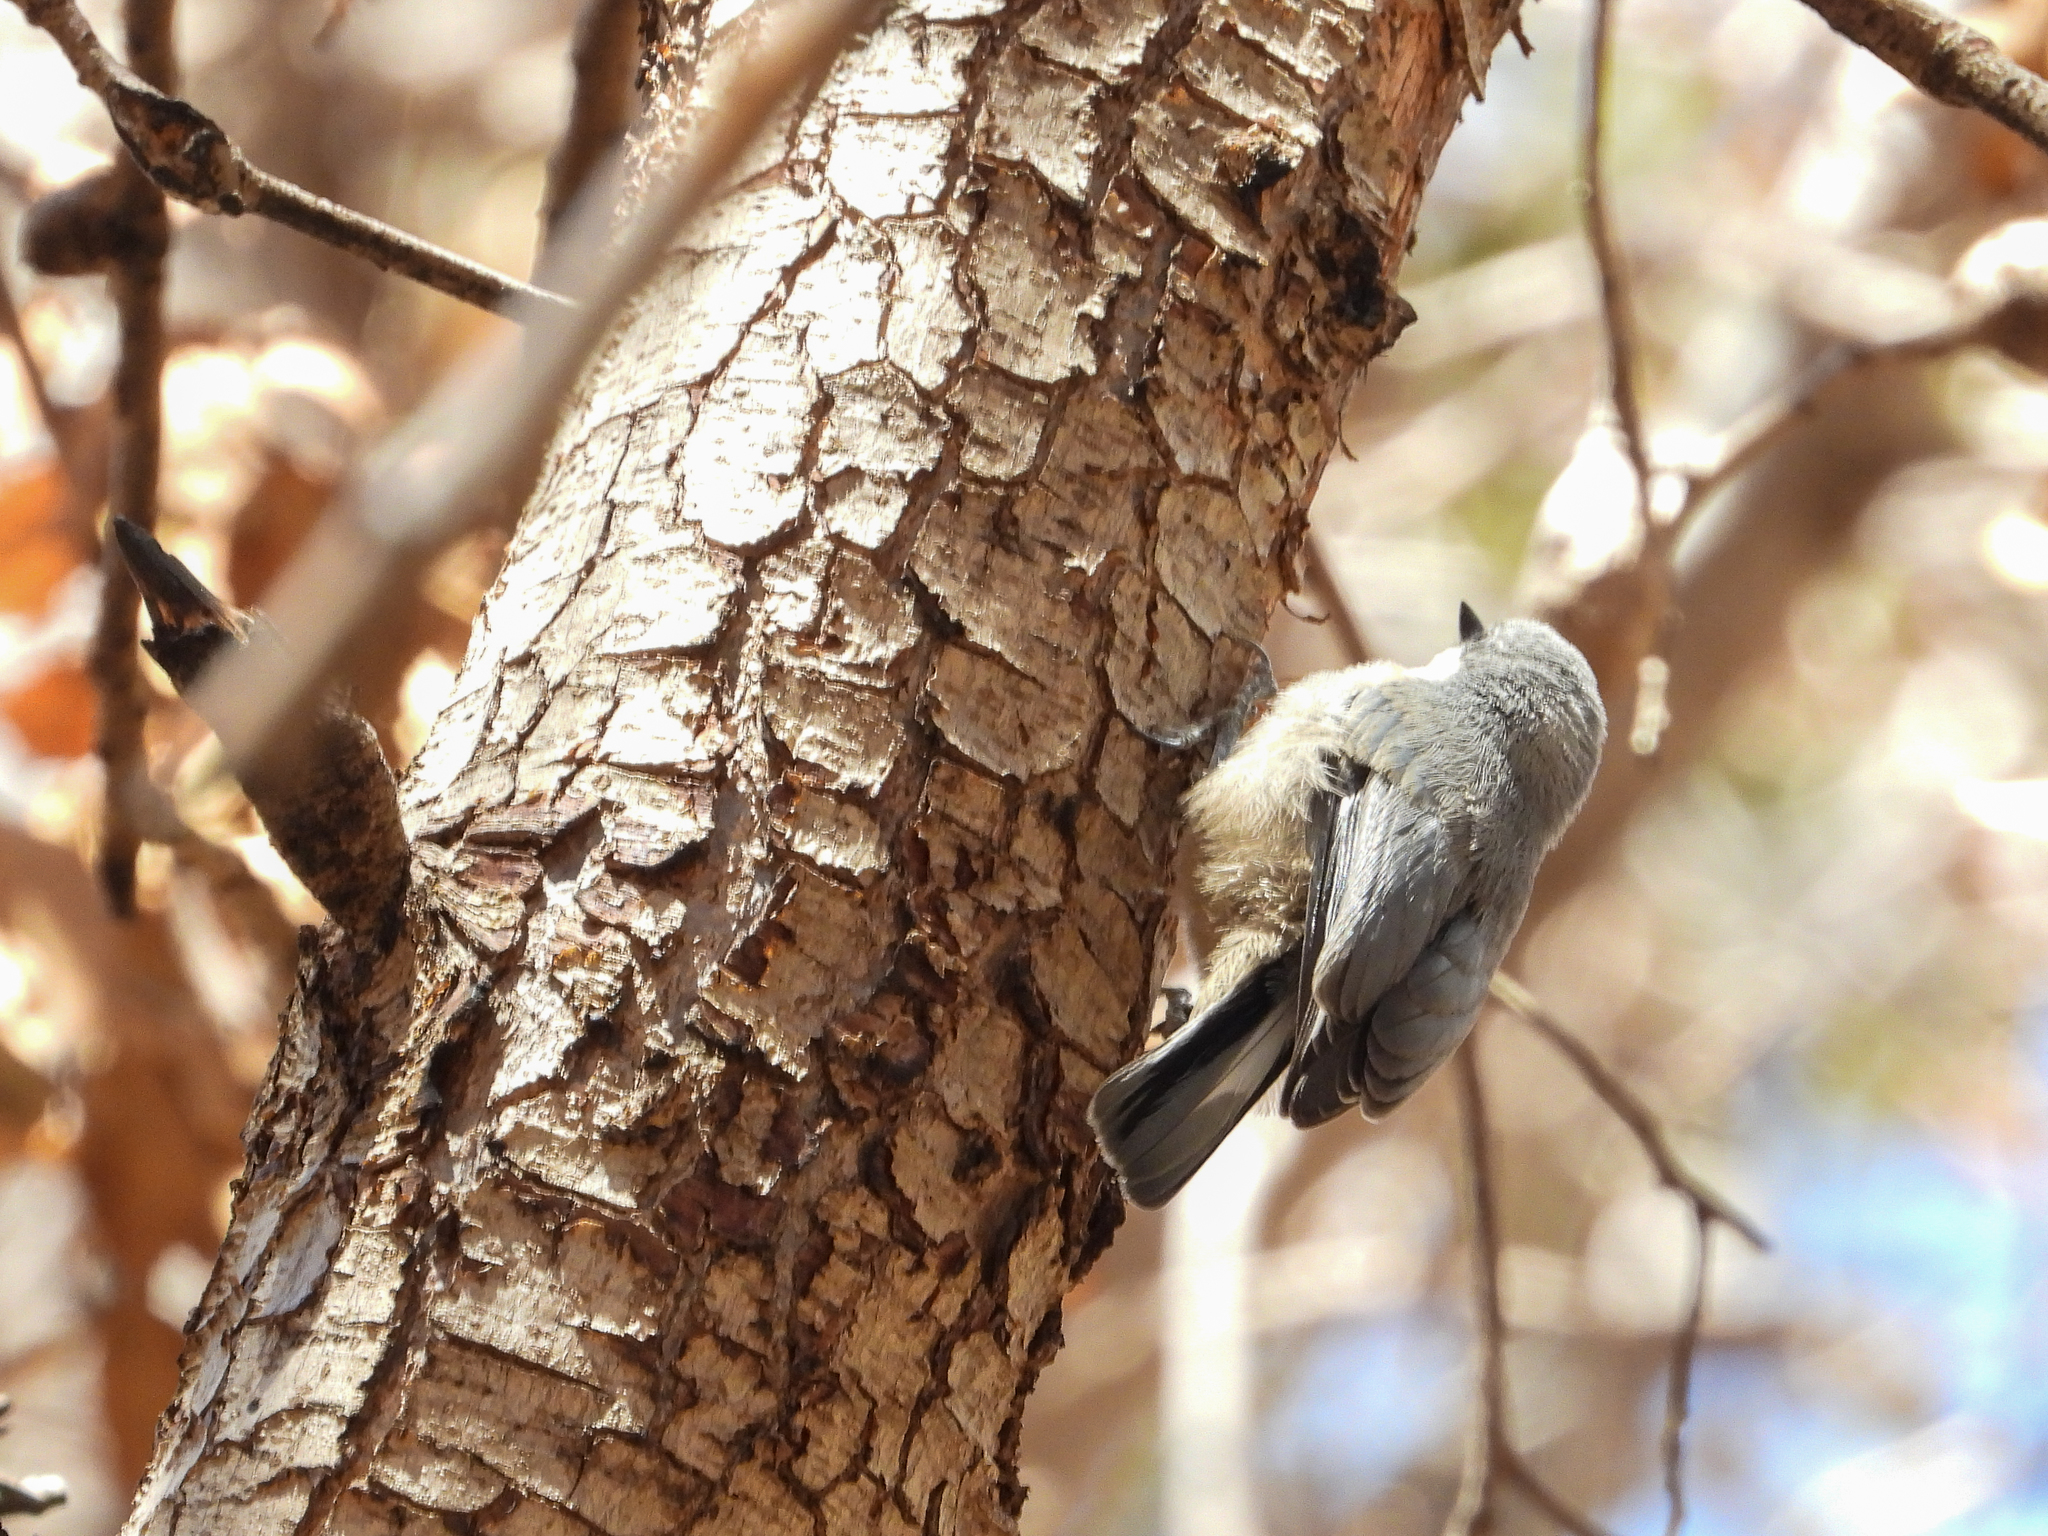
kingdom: Animalia
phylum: Chordata
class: Aves
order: Passeriformes
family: Sittidae
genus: Sitta
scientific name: Sitta pygmaea
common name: Pygmy nuthatch
